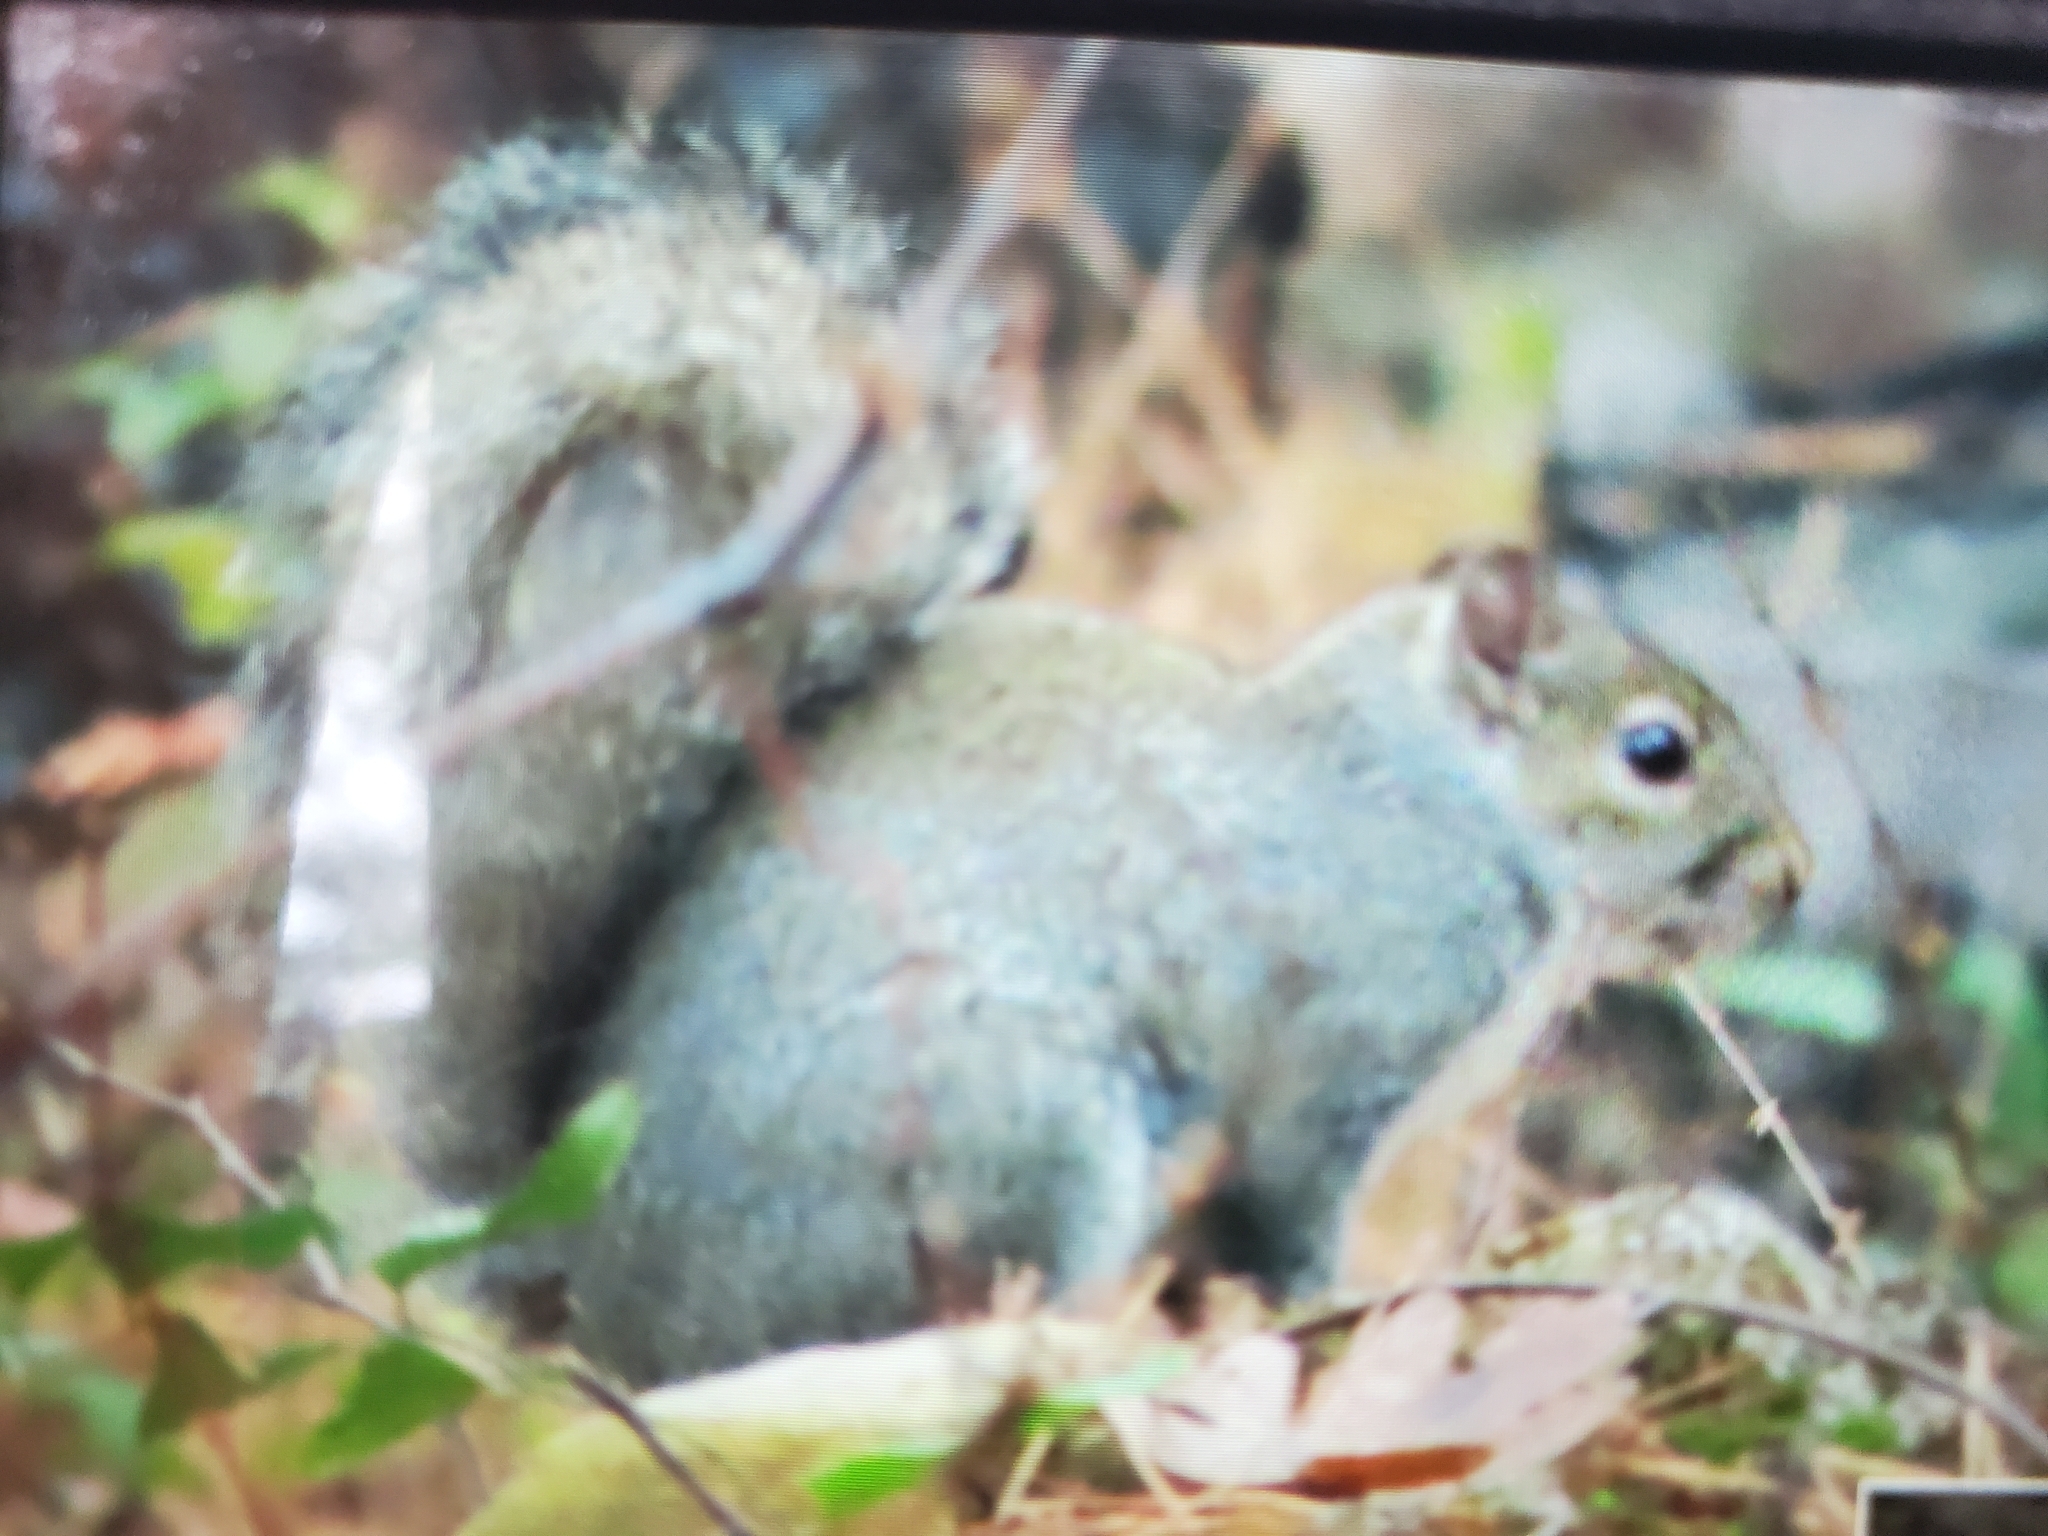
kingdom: Animalia
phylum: Chordata
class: Mammalia
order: Rodentia
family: Sciuridae
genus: Sciurus
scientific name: Sciurus carolinensis
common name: Eastern gray squirrel
